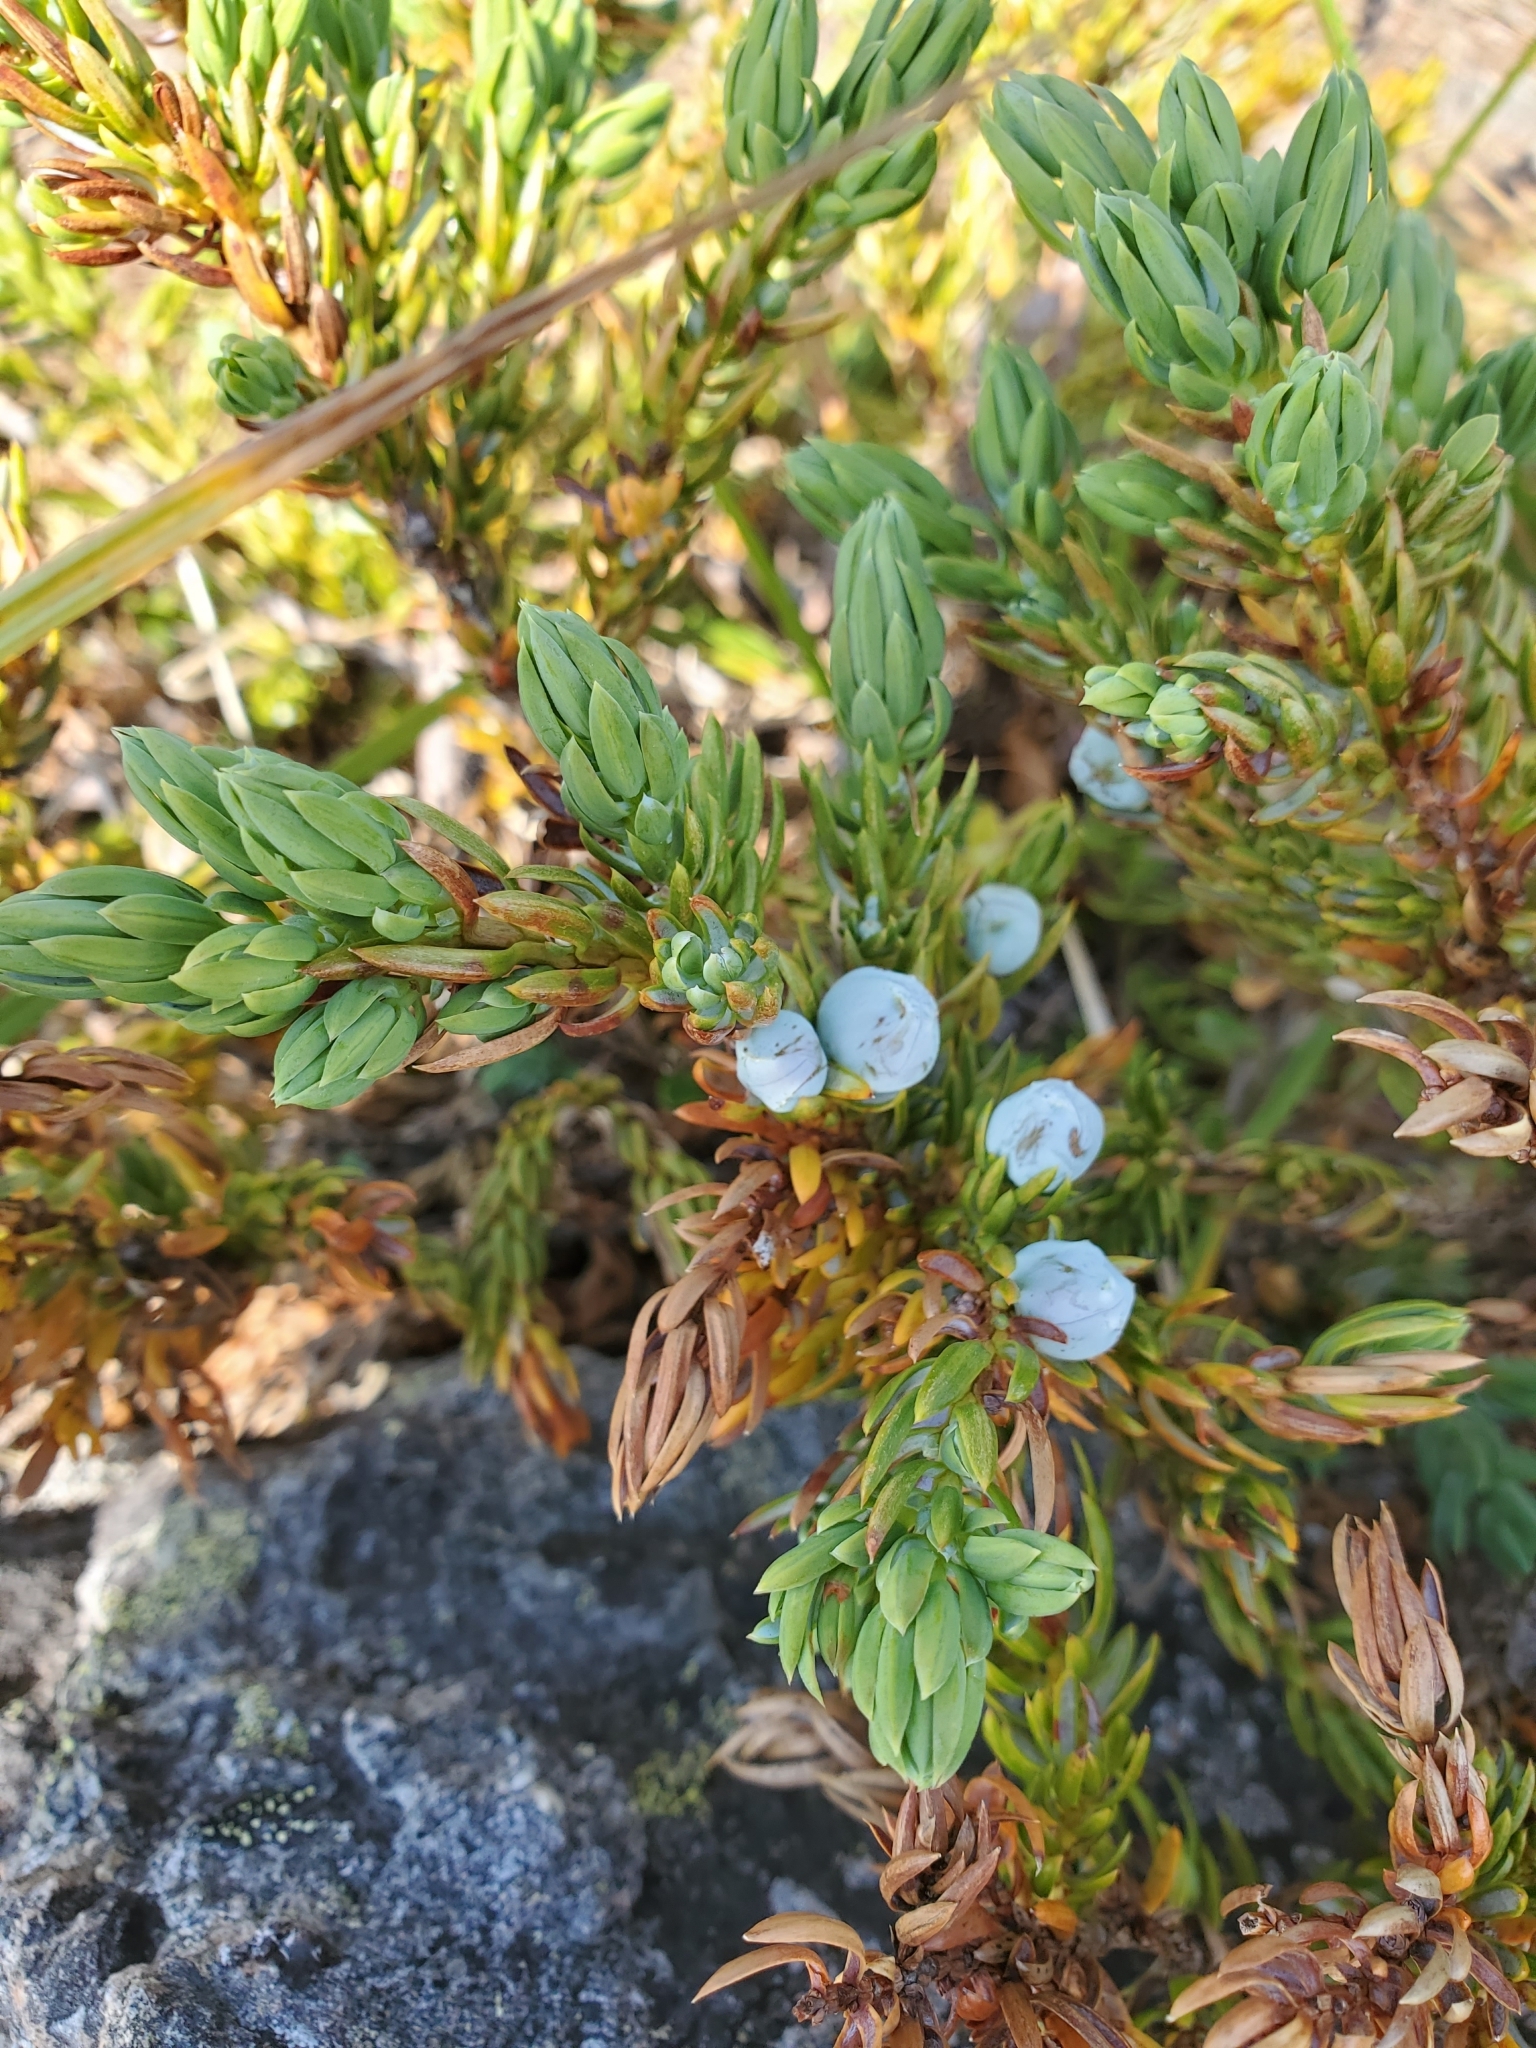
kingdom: Plantae
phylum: Tracheophyta
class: Pinopsida
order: Pinales
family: Cupressaceae
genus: Juniperus
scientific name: Juniperus communis
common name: Common juniper
